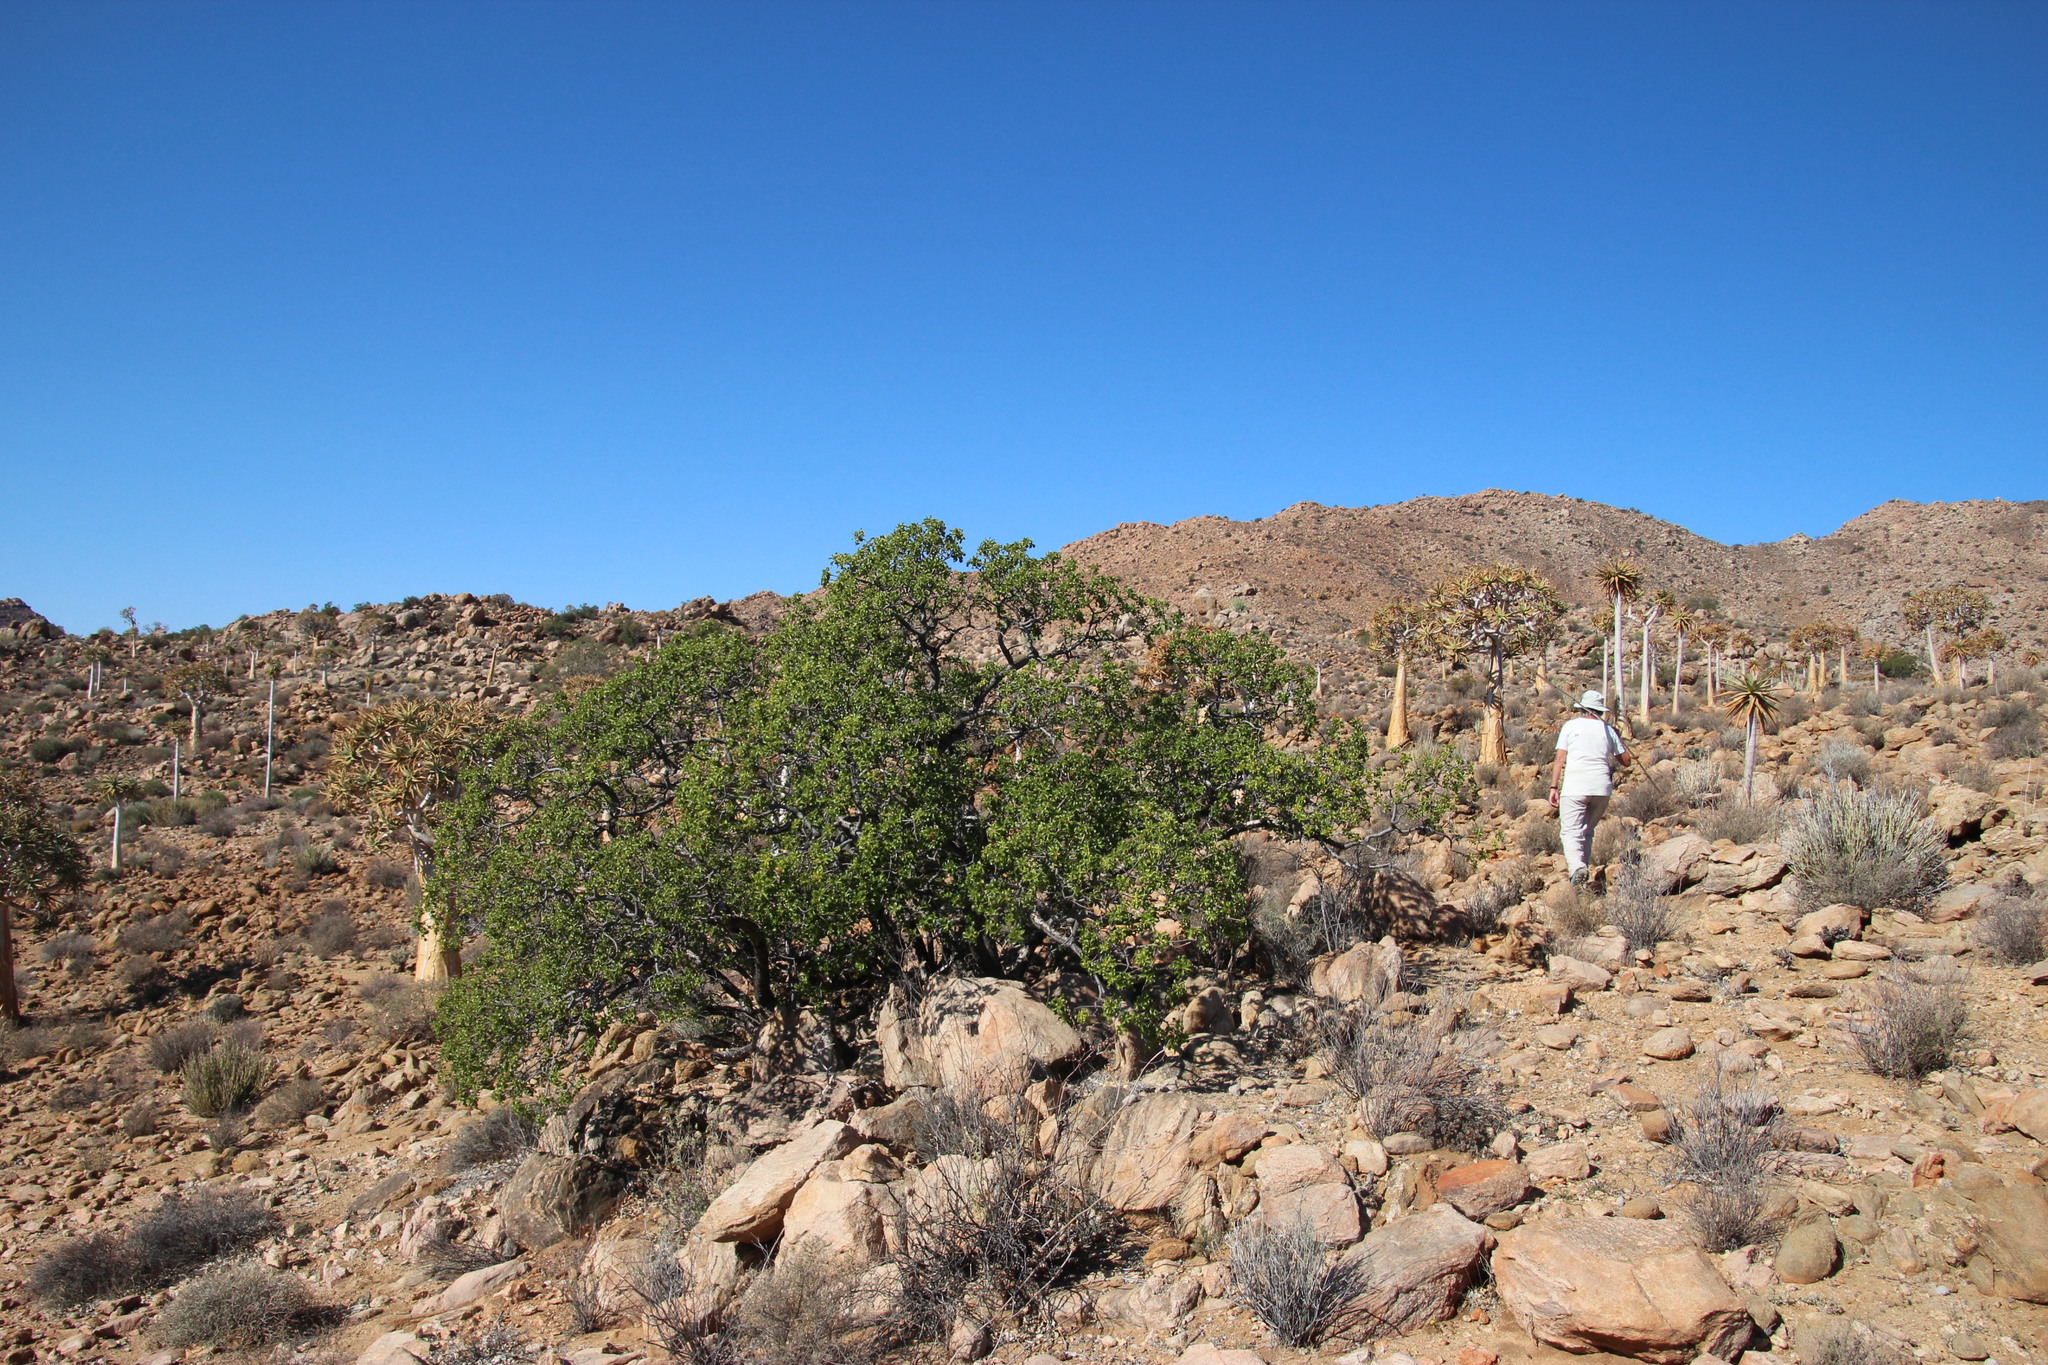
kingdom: Plantae
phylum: Tracheophyta
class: Magnoliopsida
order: Sapindales
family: Anacardiaceae
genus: Ozoroa
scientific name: Ozoroa dispar
